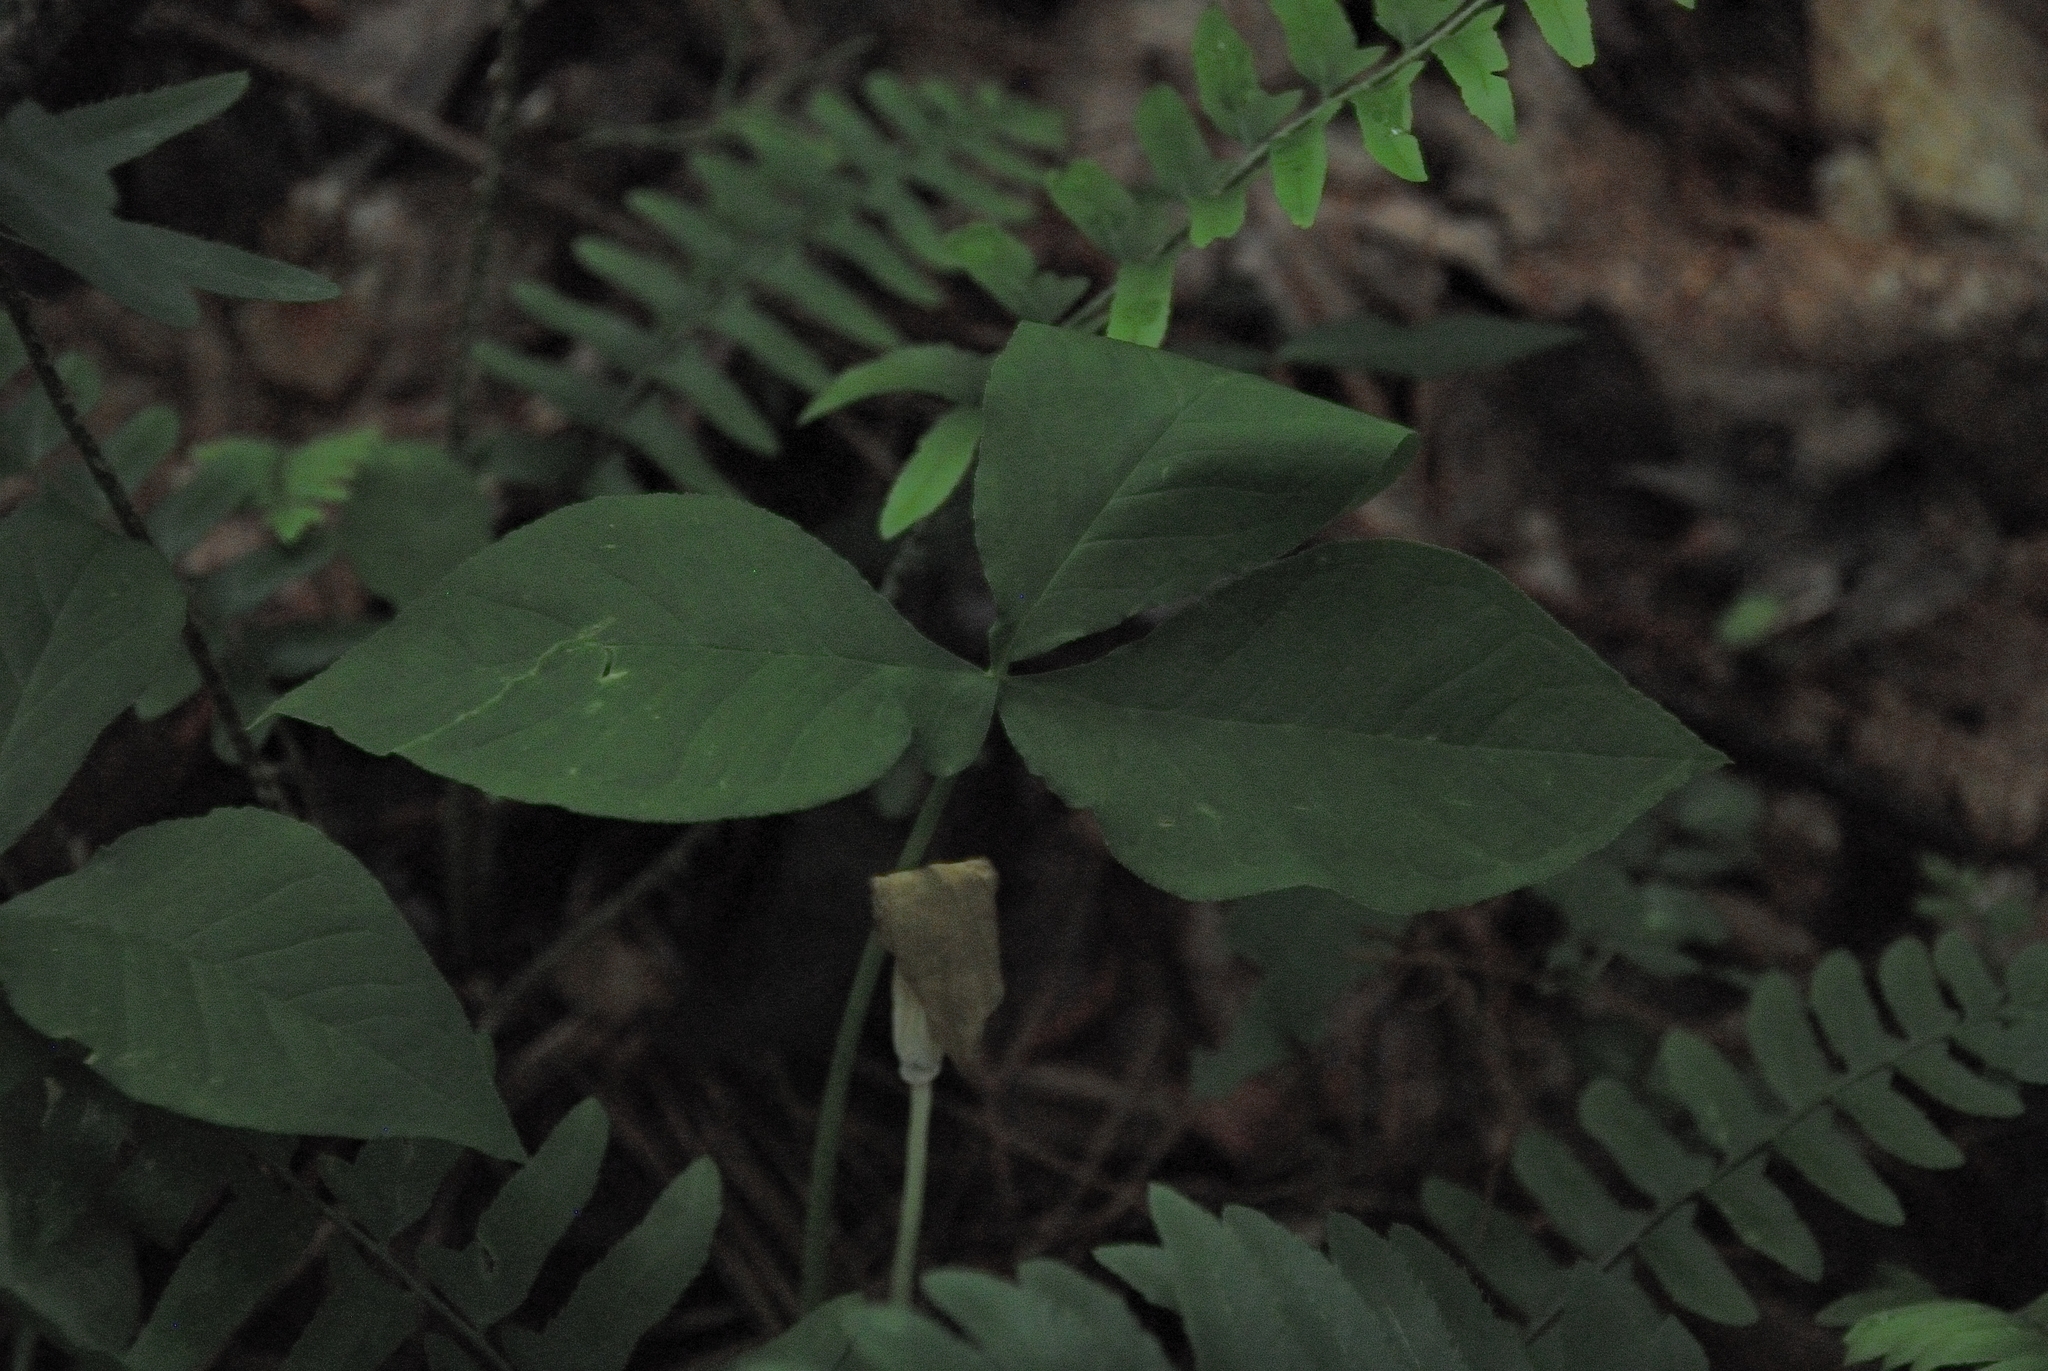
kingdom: Plantae
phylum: Tracheophyta
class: Liliopsida
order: Alismatales
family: Araceae
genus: Arisaema
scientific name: Arisaema triphyllum
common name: Jack-in-the-pulpit
